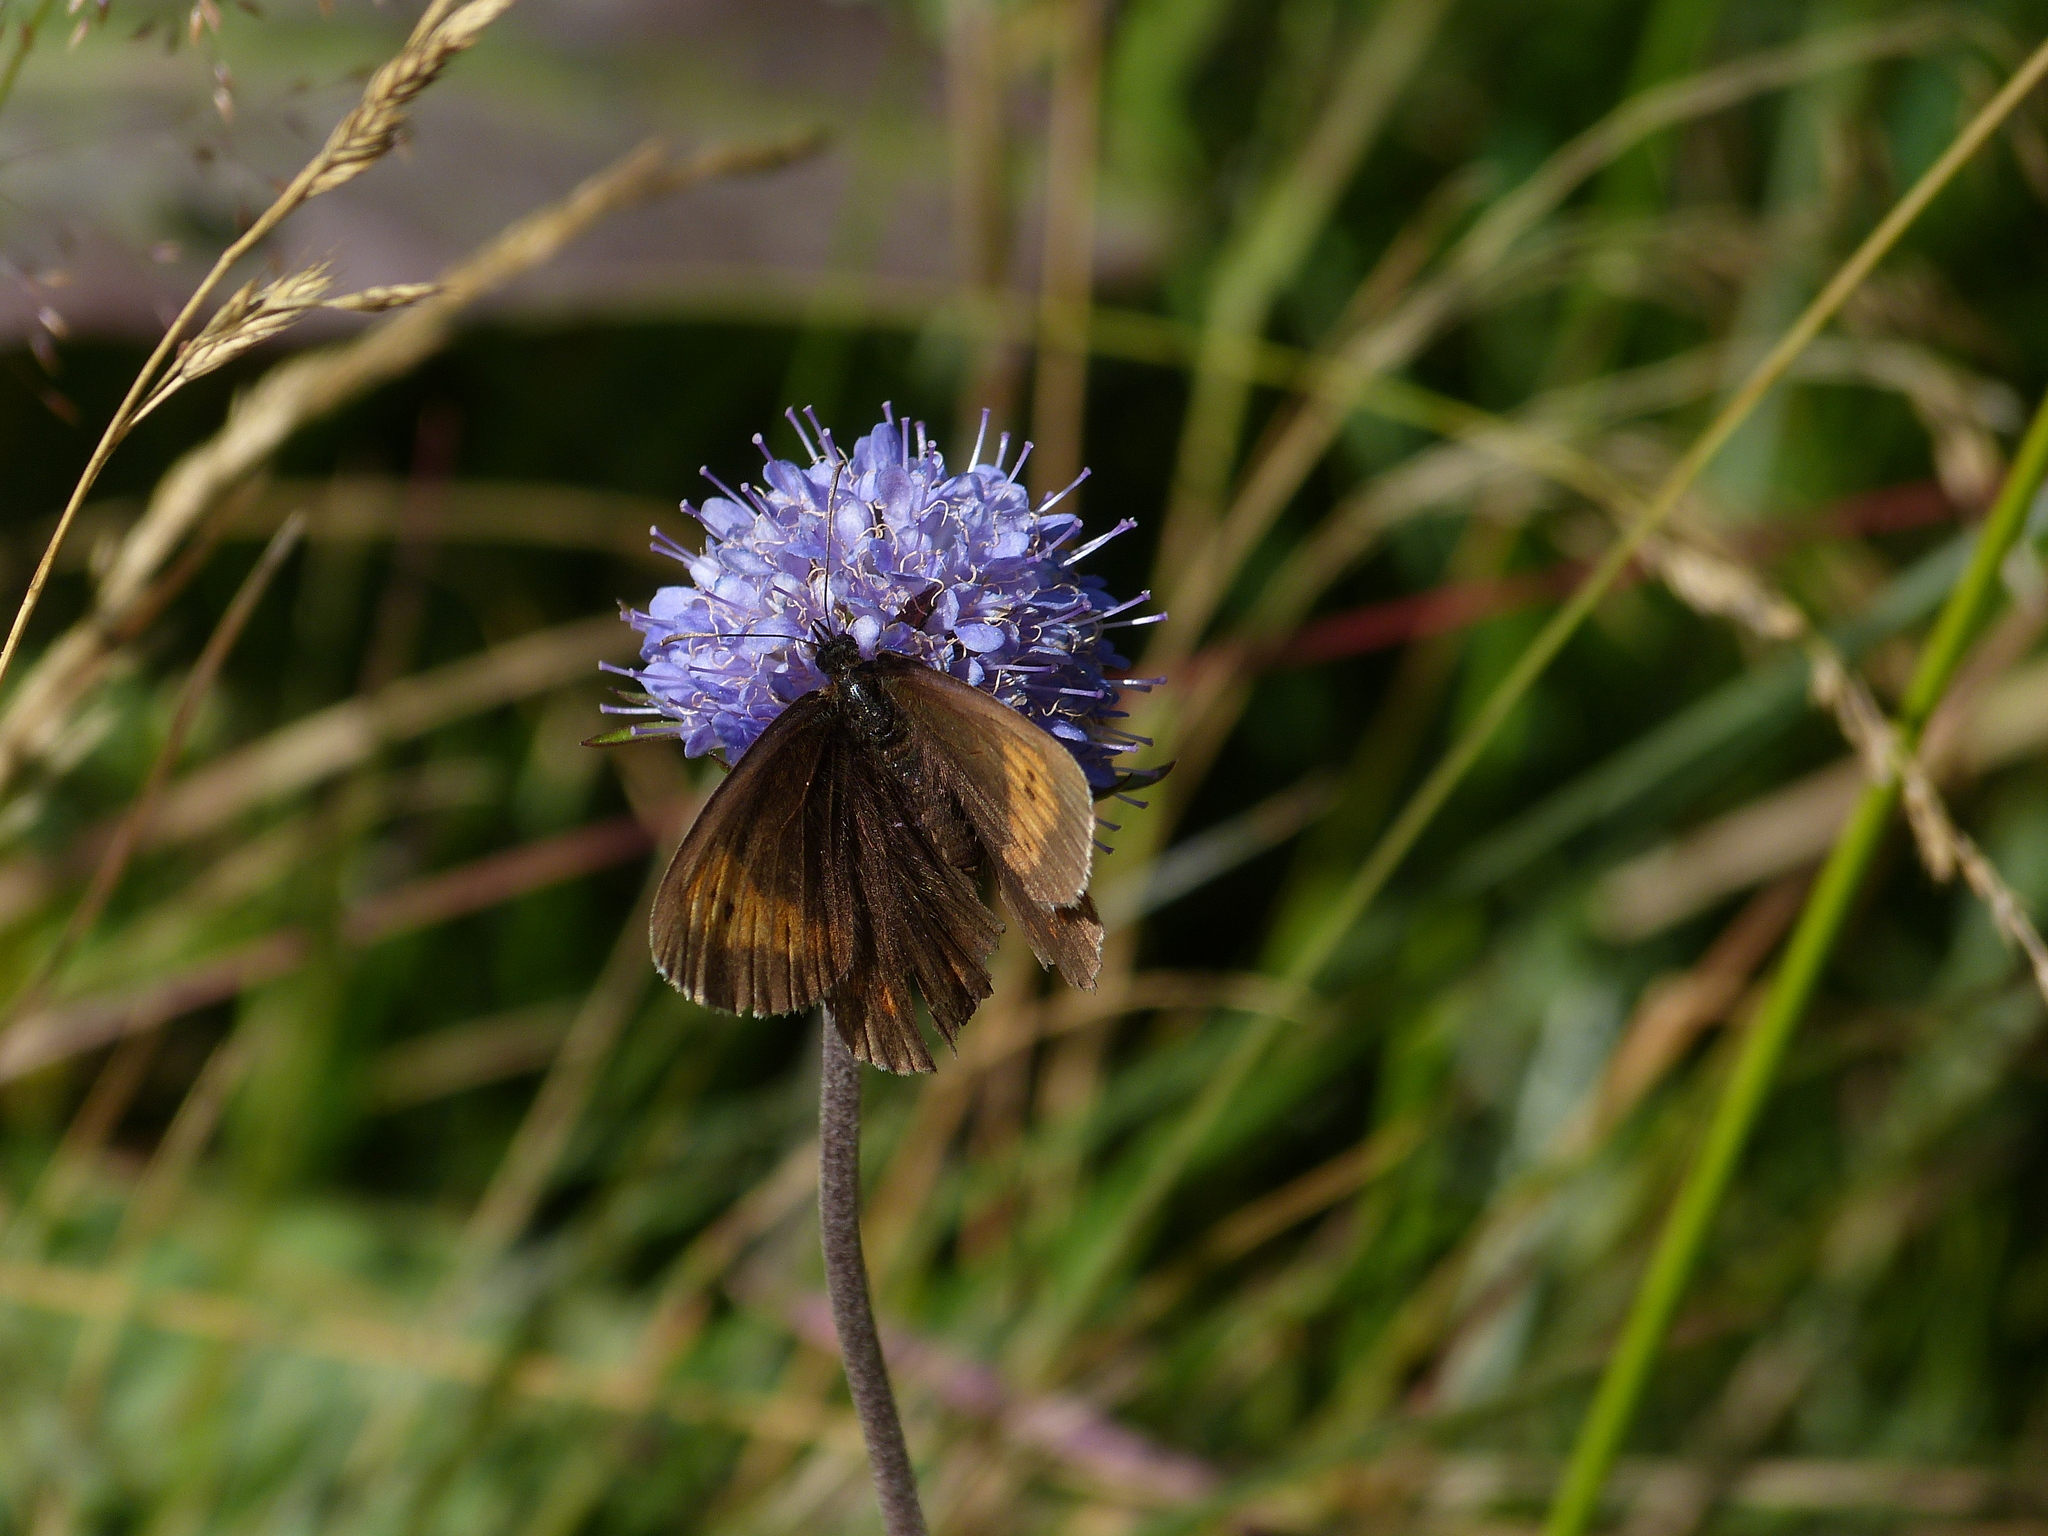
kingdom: Animalia
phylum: Arthropoda
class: Insecta
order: Lepidoptera
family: Nymphalidae
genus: Erebia
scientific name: Erebia euryale
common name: Large ringlet
